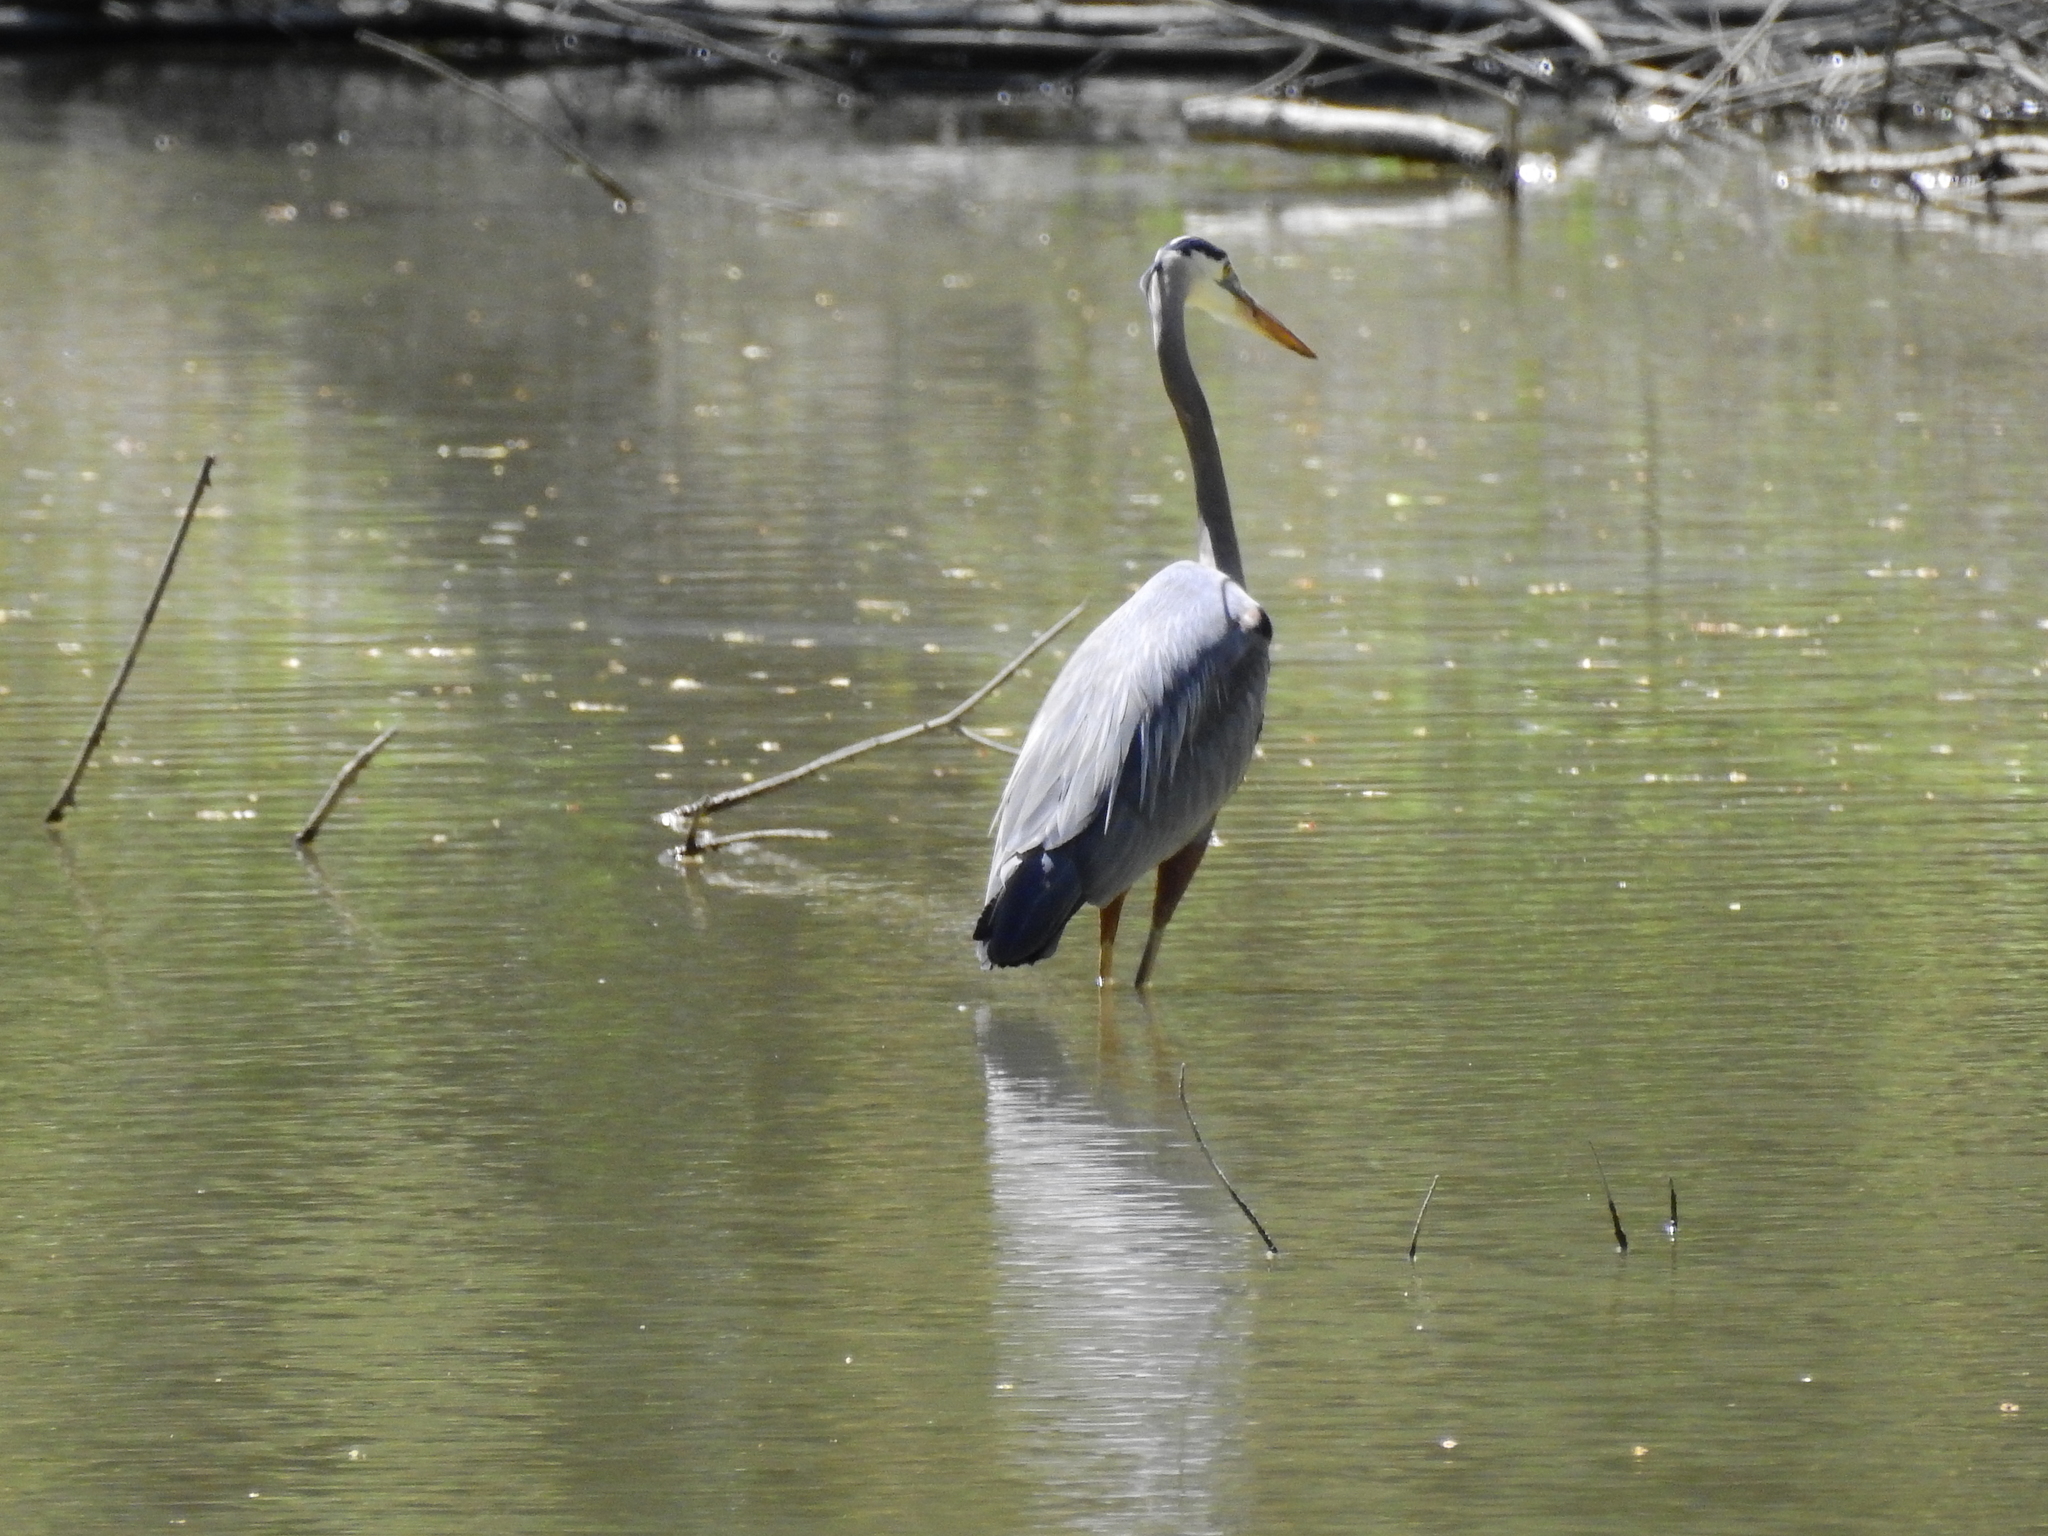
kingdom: Animalia
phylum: Chordata
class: Aves
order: Pelecaniformes
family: Ardeidae
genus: Ardea
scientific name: Ardea herodias
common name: Great blue heron
